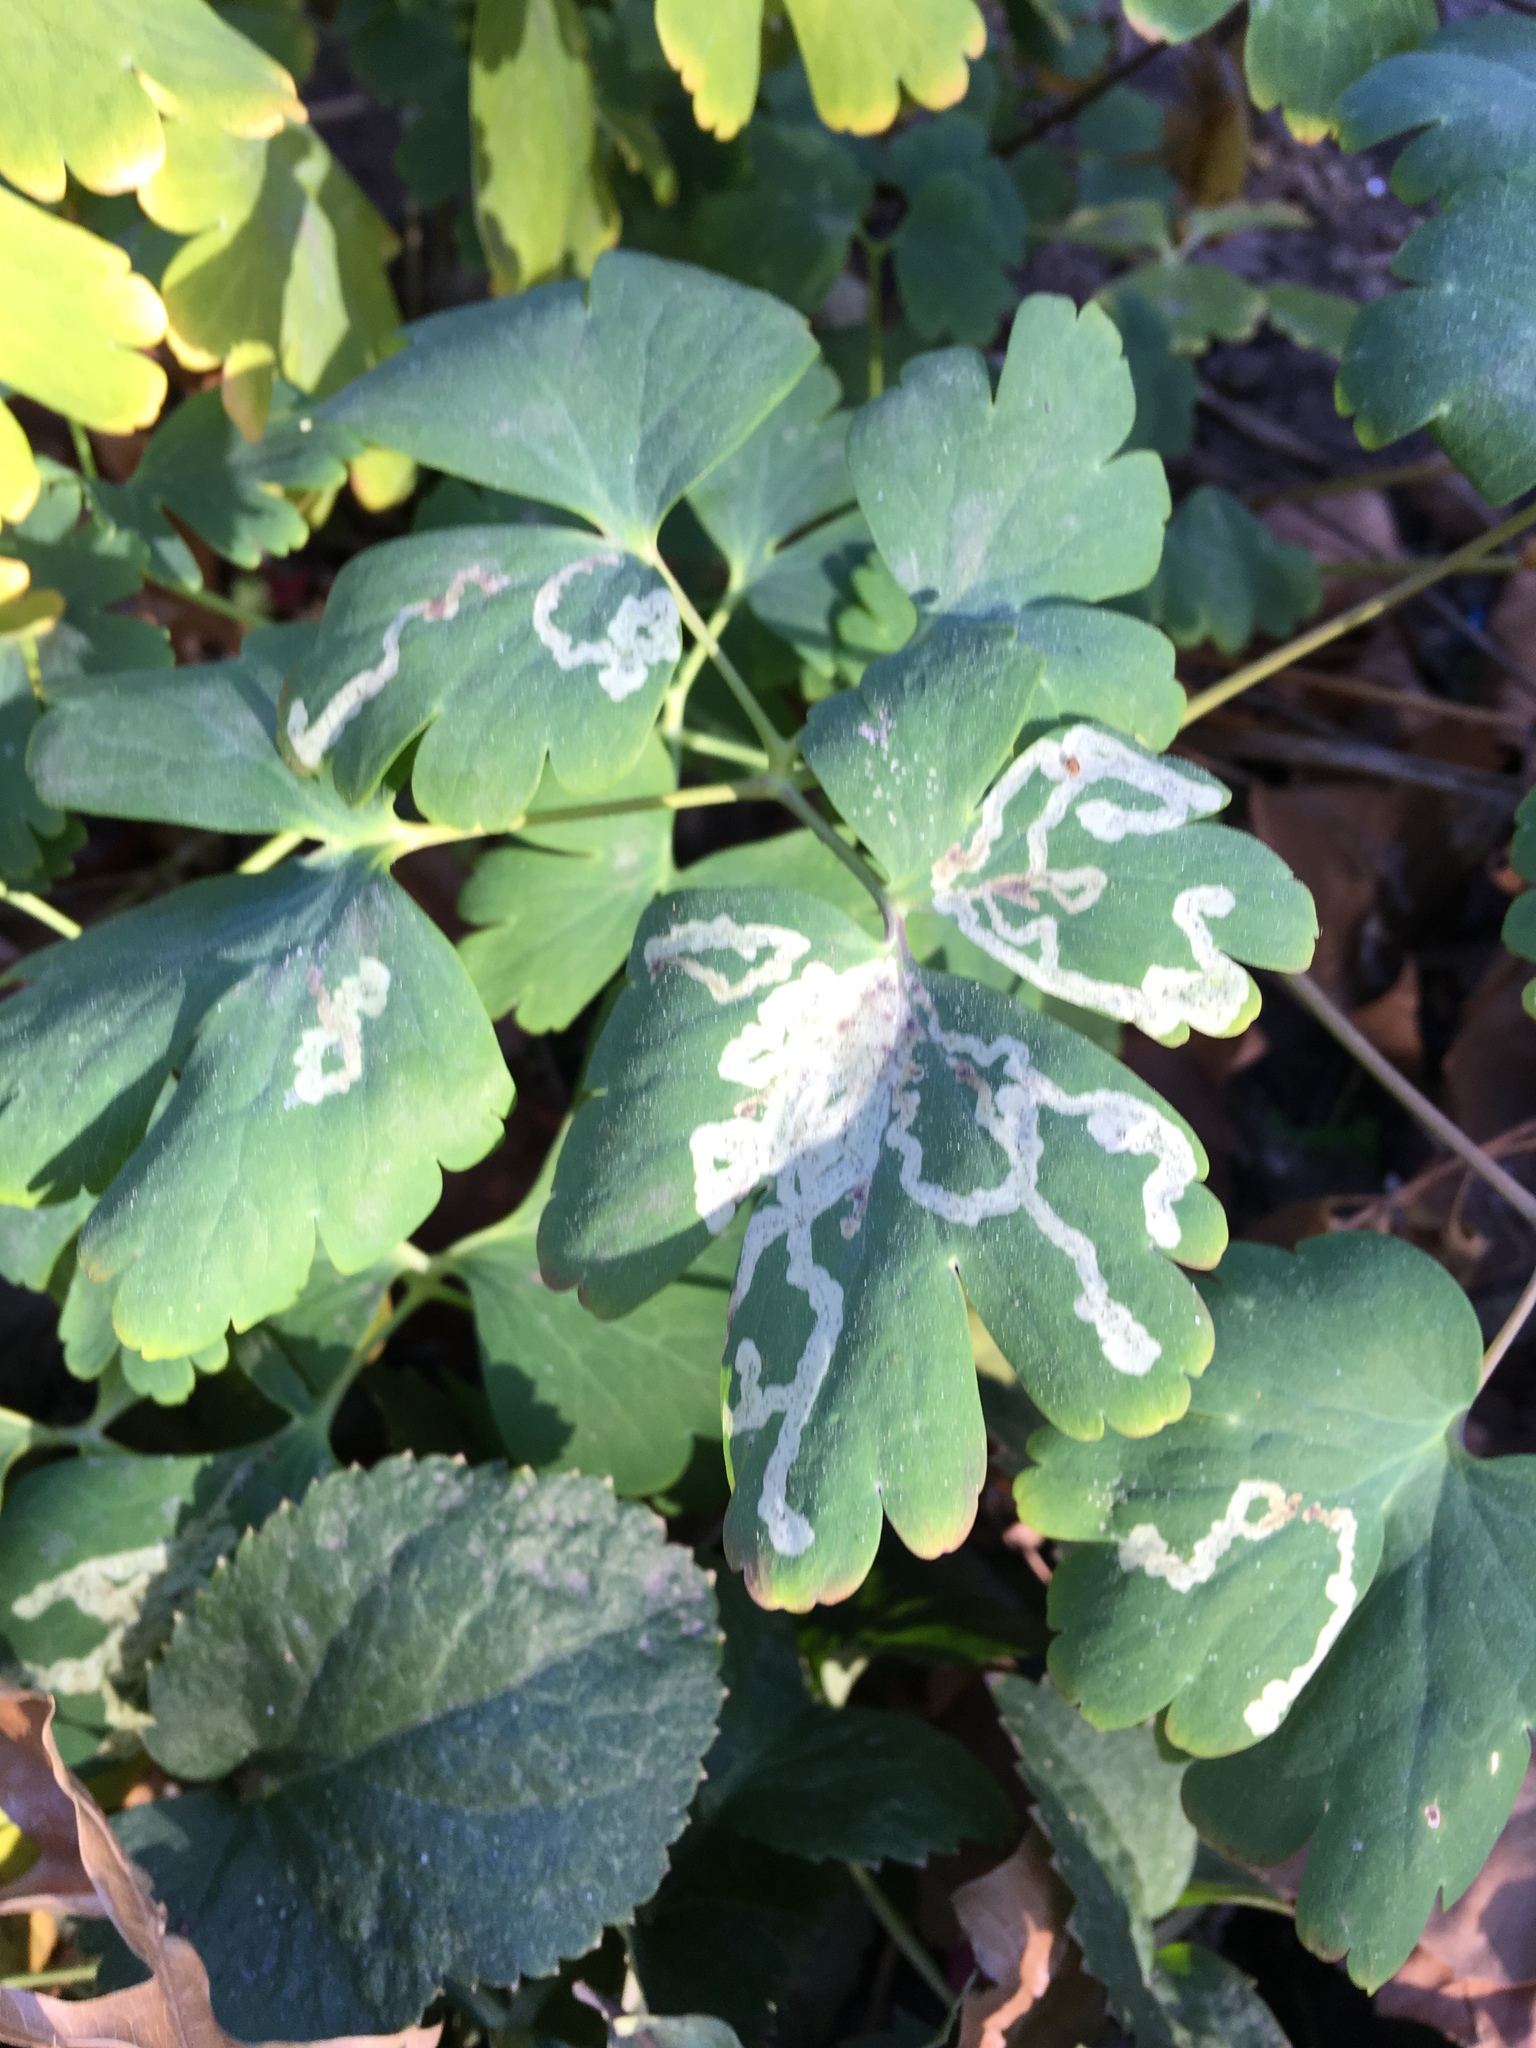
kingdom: Animalia
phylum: Arthropoda
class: Insecta
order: Diptera
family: Agromyzidae
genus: Phytomyza
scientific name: Phytomyza
